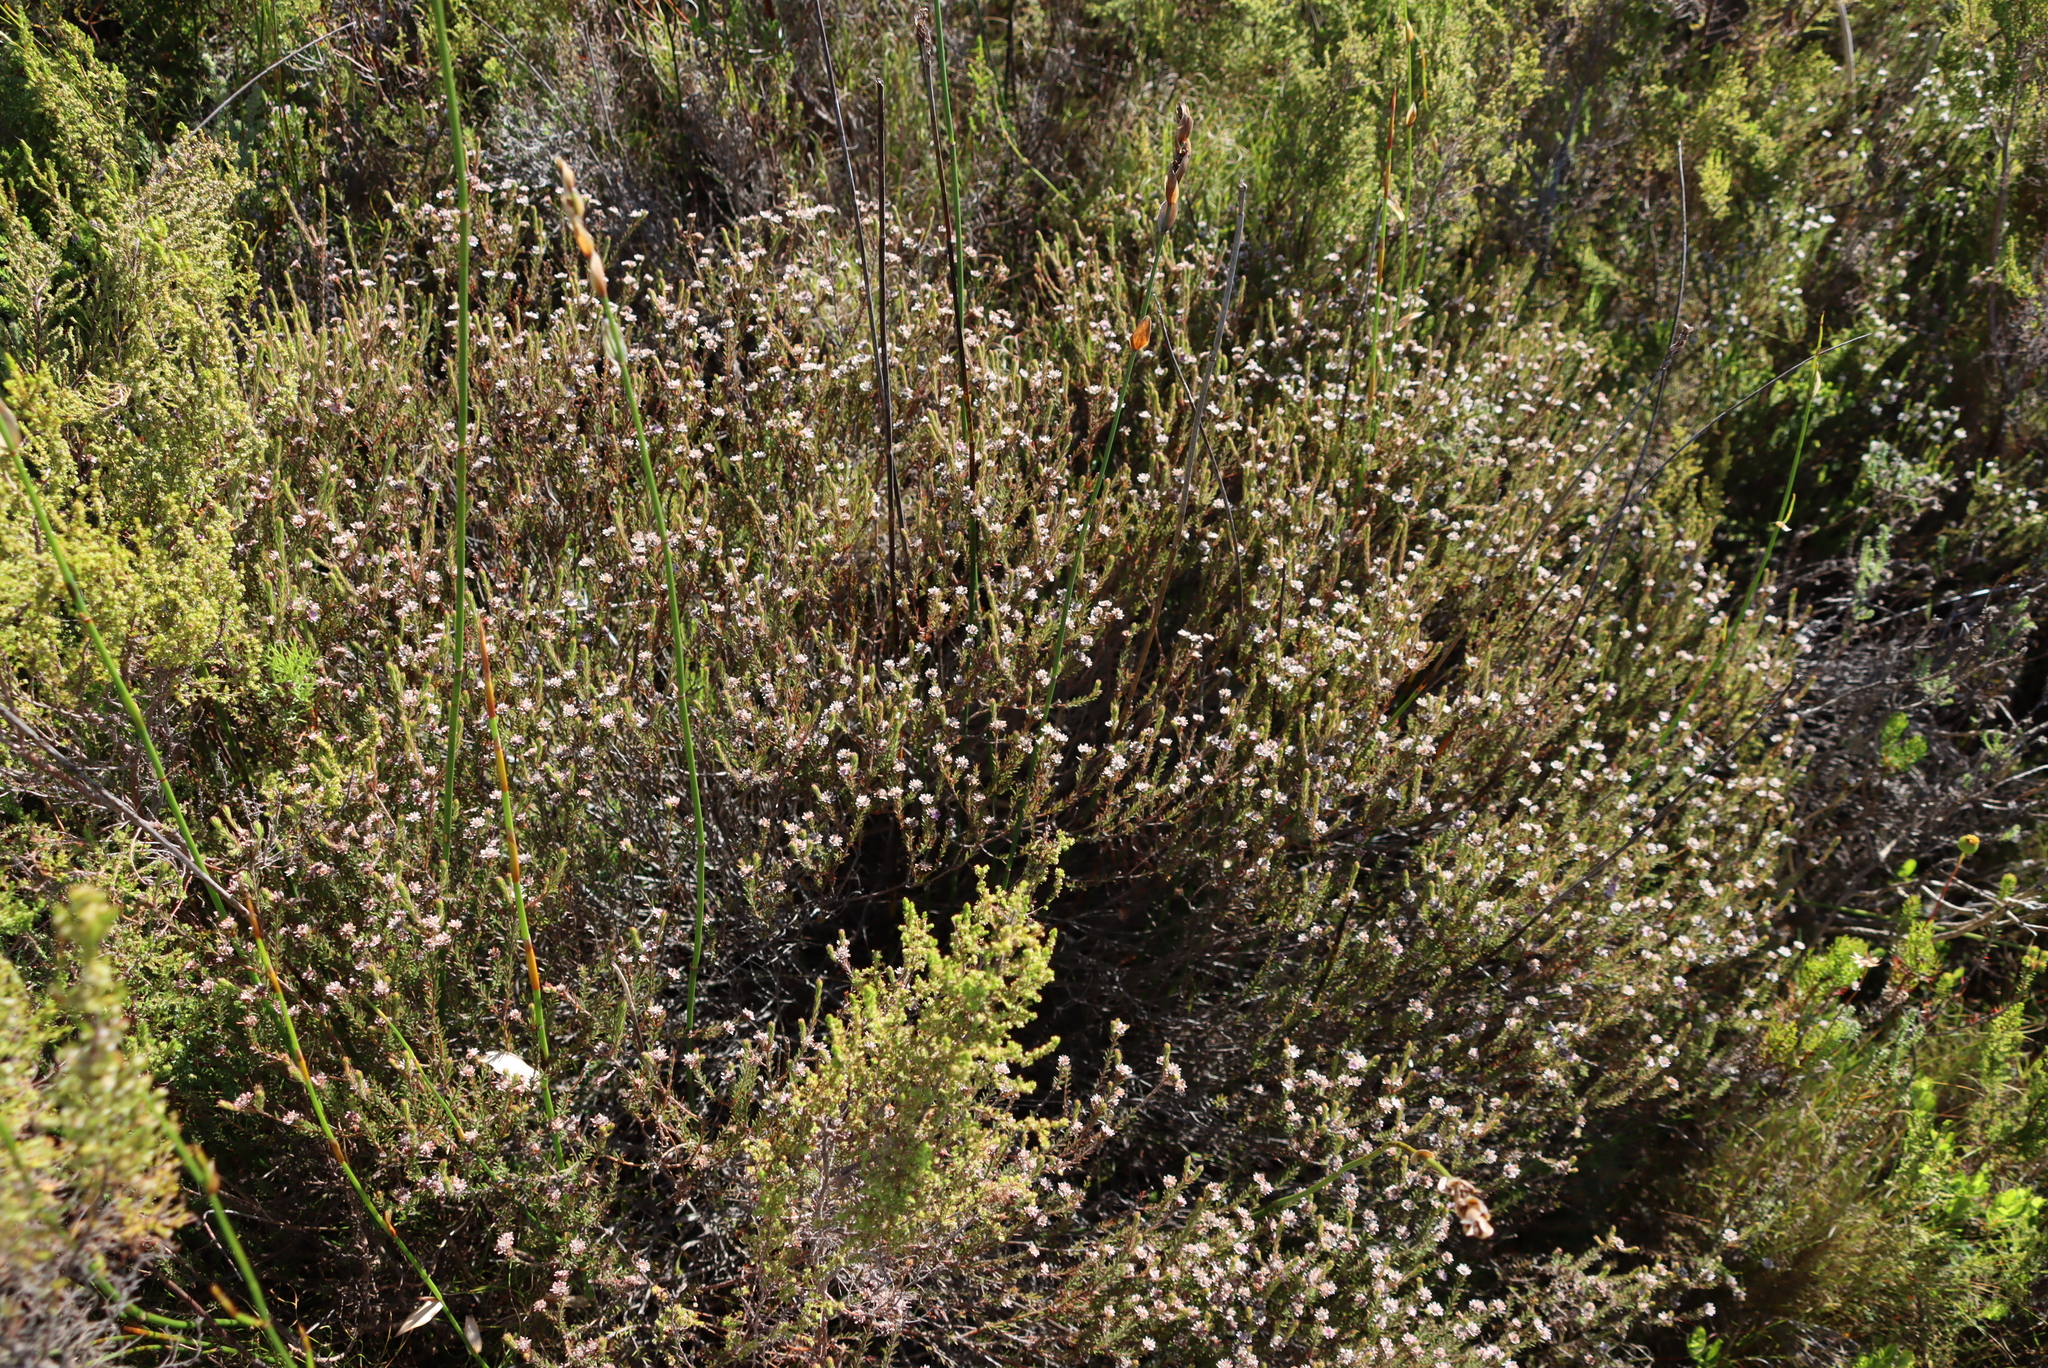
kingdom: Plantae
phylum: Tracheophyta
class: Magnoliopsida
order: Bruniales
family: Bruniaceae
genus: Staavia
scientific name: Staavia radiata
